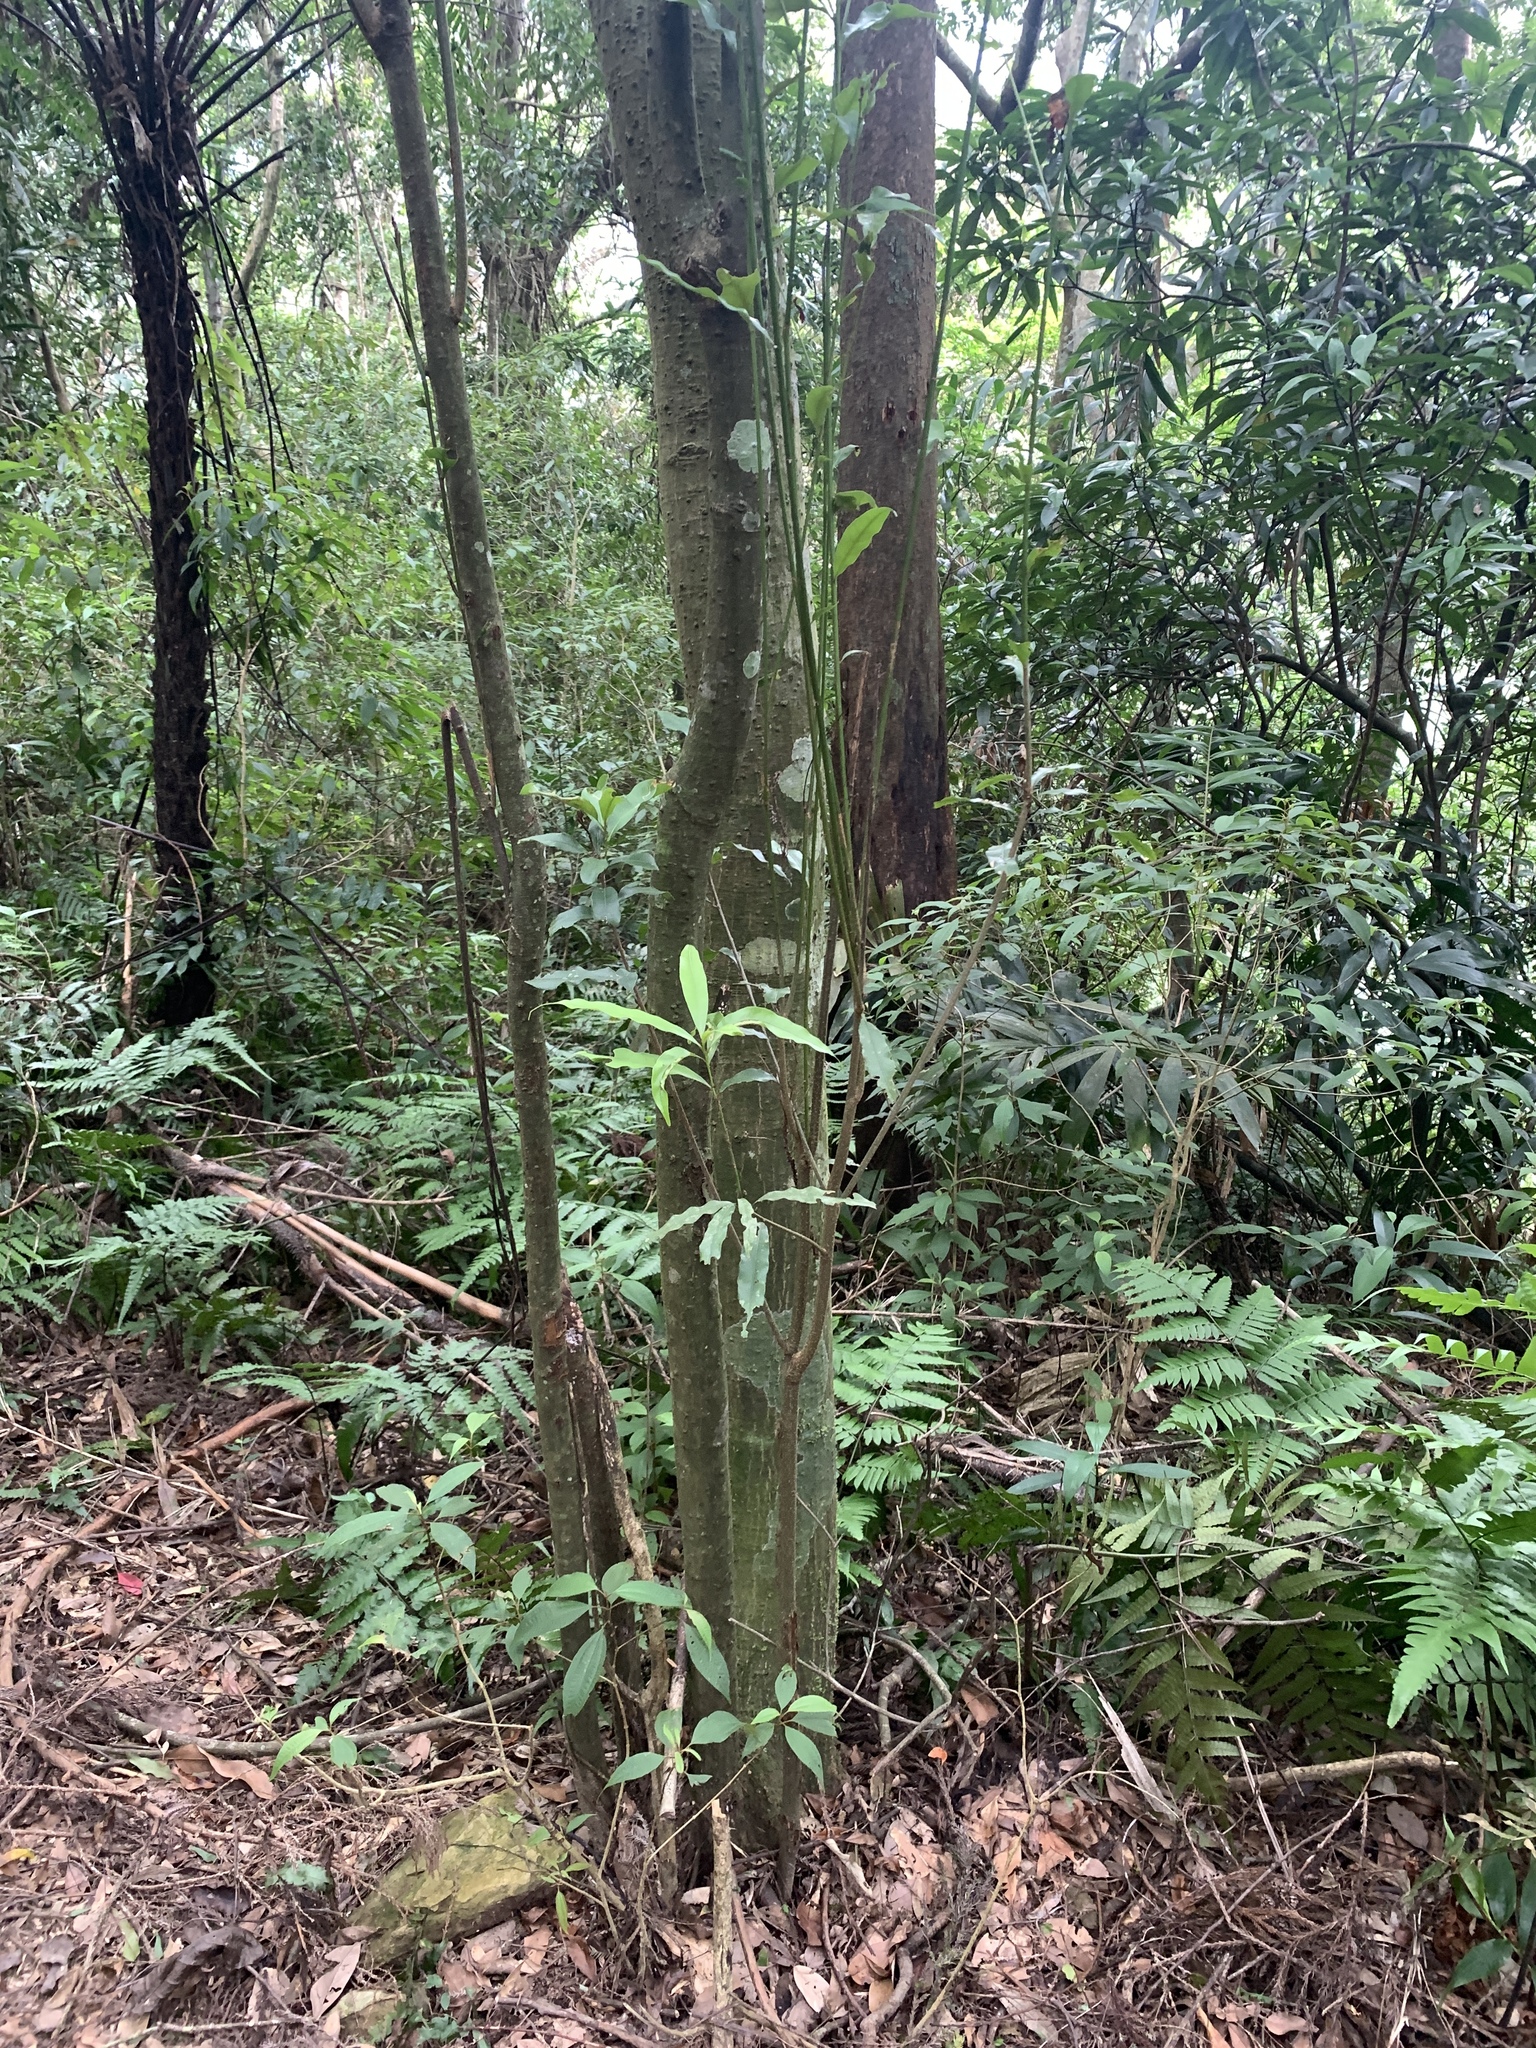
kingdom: Plantae
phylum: Tracheophyta
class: Magnoliopsida
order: Fagales
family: Fagaceae
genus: Lithocarpus
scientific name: Lithocarpus hancei
